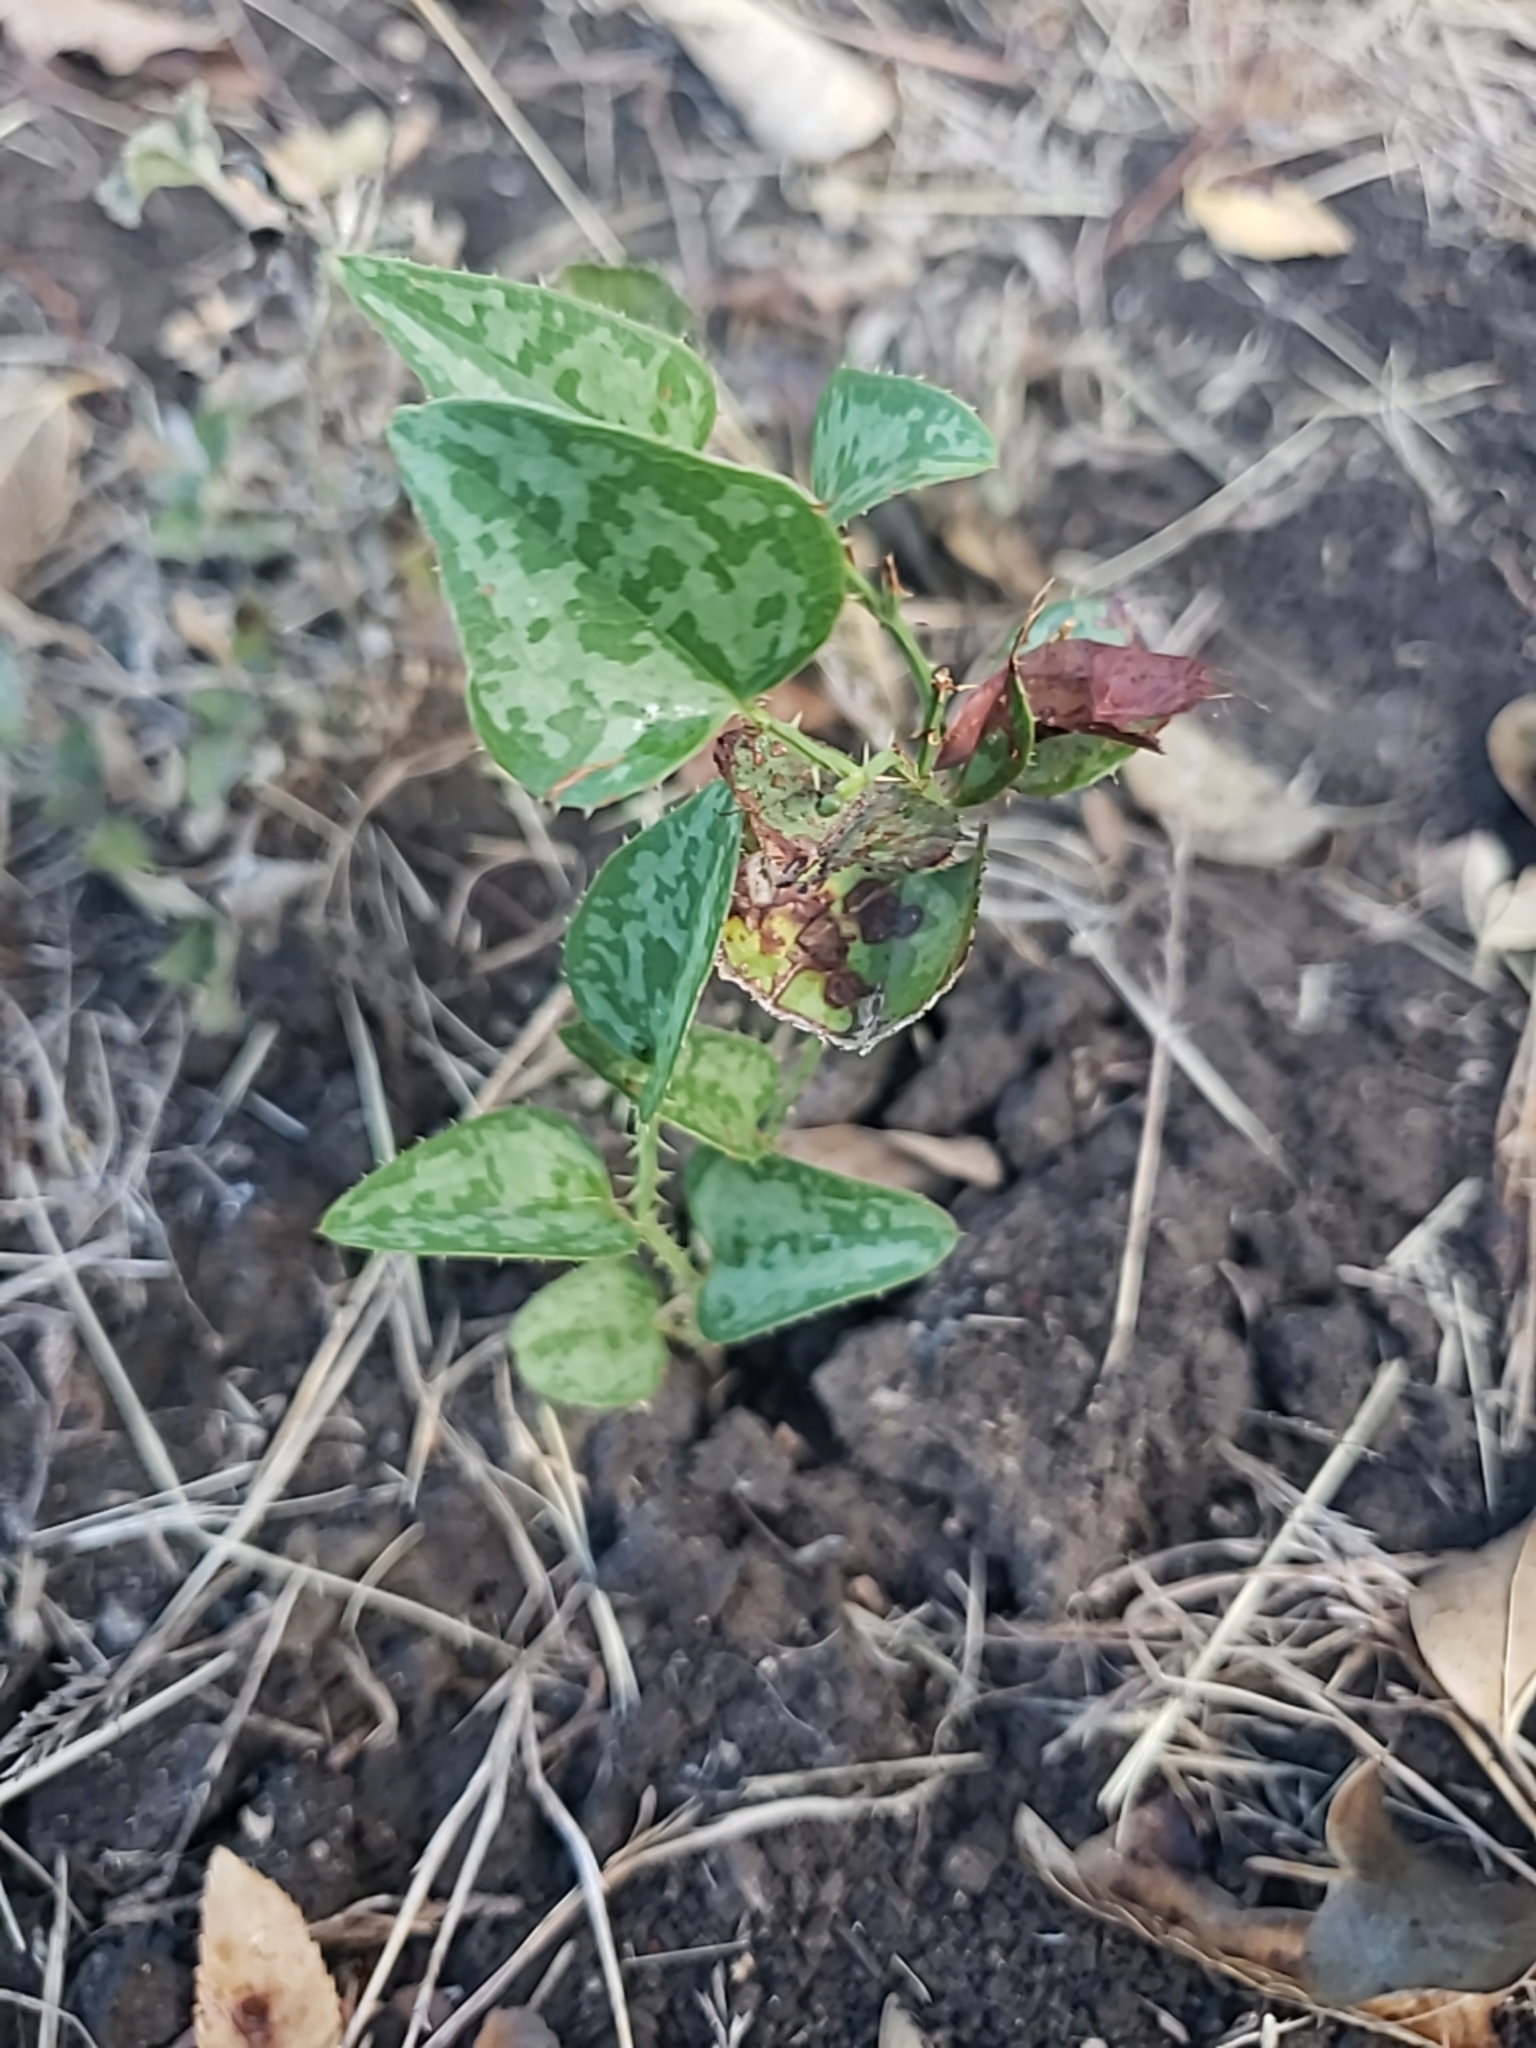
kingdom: Plantae
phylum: Tracheophyta
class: Liliopsida
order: Liliales
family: Smilacaceae
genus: Smilax
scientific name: Smilax bona-nox
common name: Catbrier
